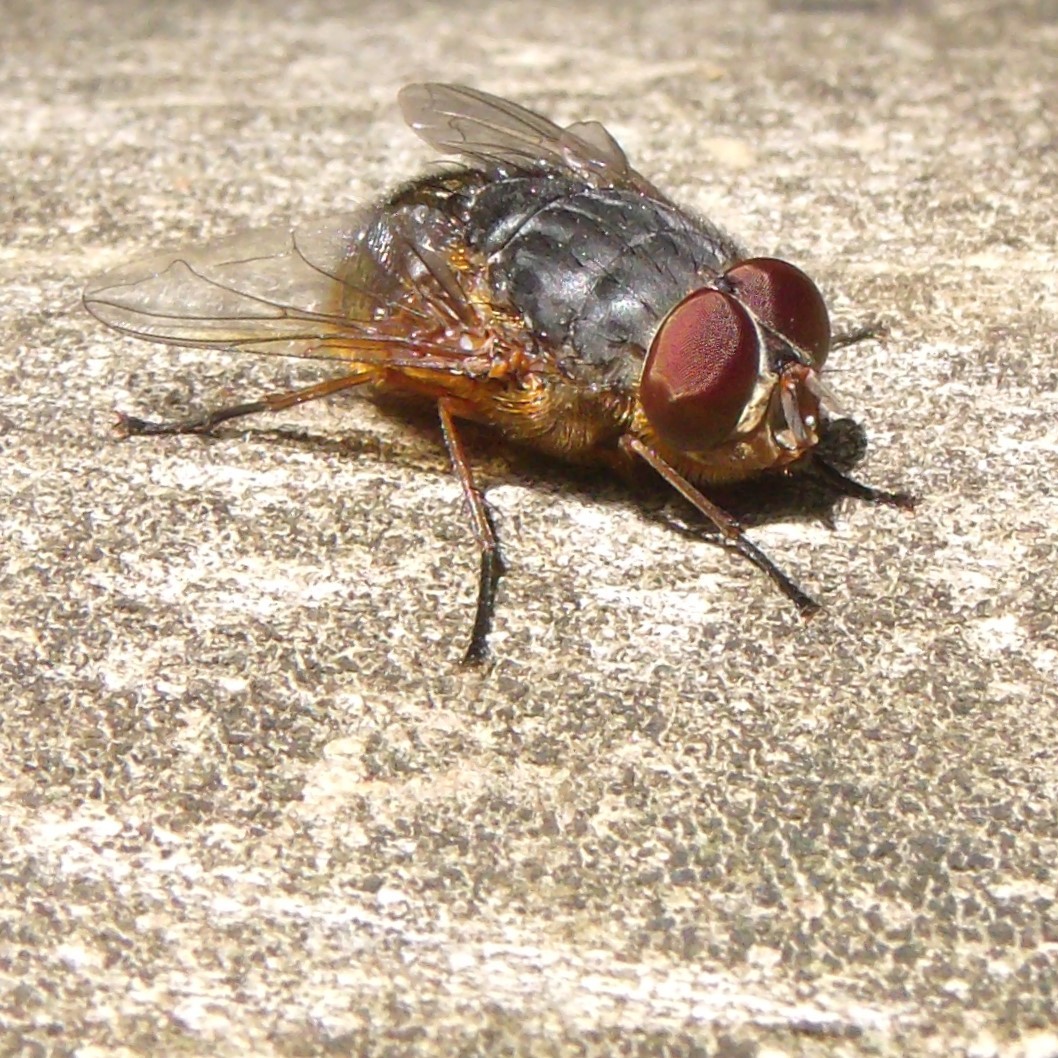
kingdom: Animalia
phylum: Arthropoda
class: Insecta
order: Diptera
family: Calliphoridae
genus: Calliphora
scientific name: Calliphora stygia
